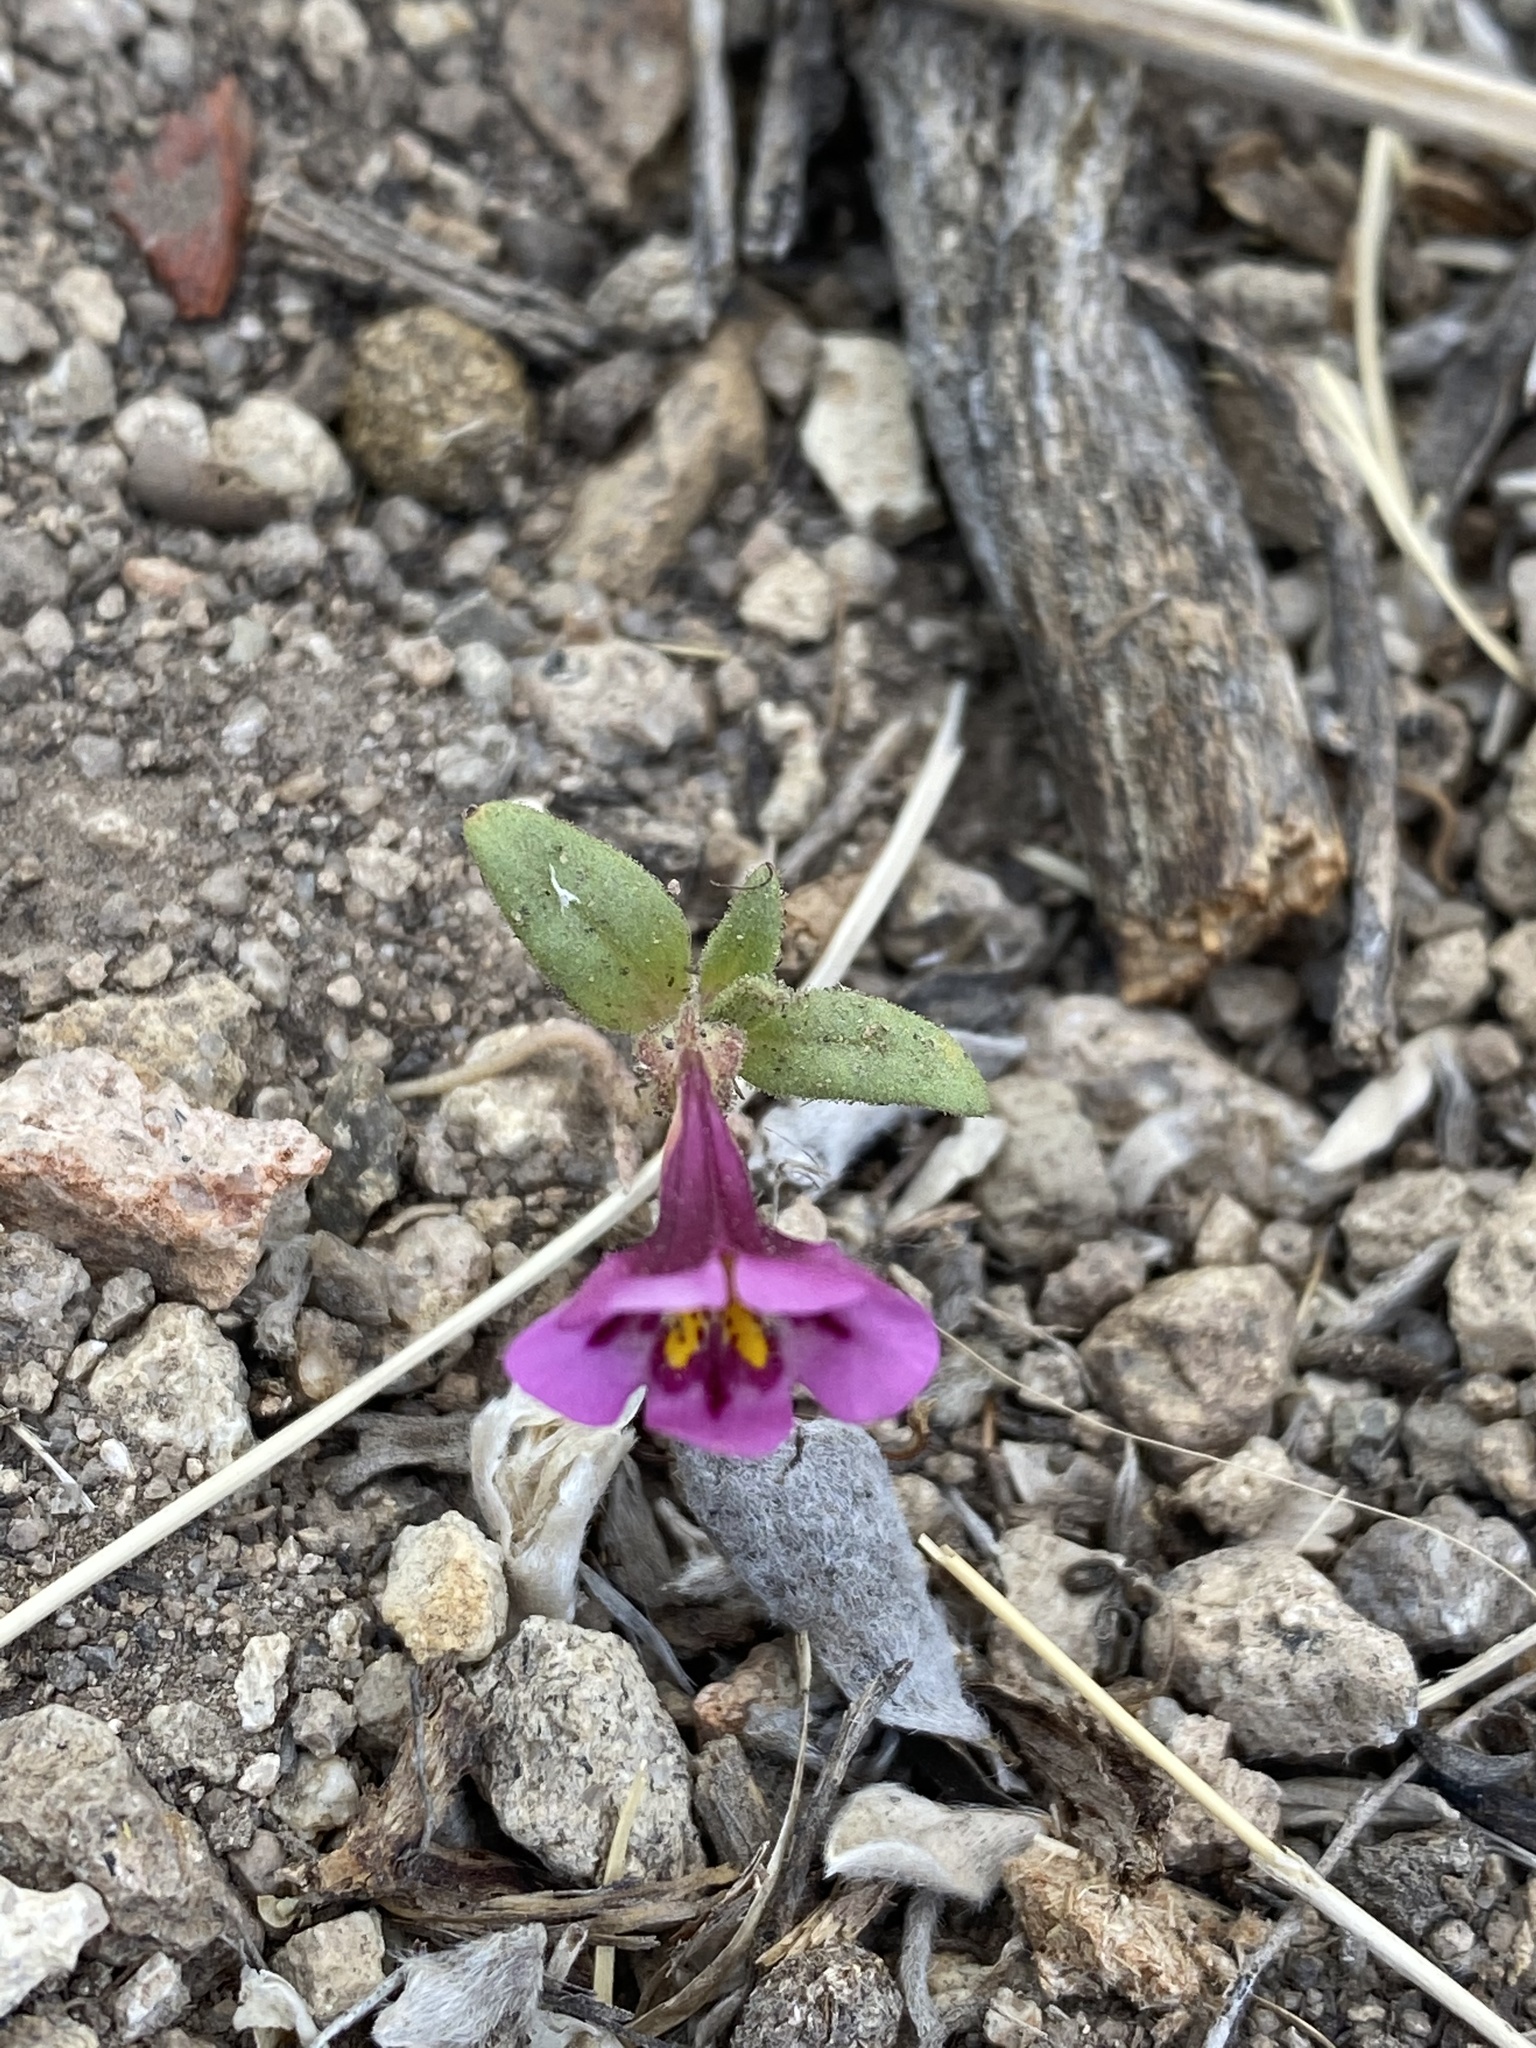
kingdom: Plantae
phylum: Tracheophyta
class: Magnoliopsida
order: Lamiales
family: Phrymaceae
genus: Diplacus
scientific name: Diplacus mephiticus
